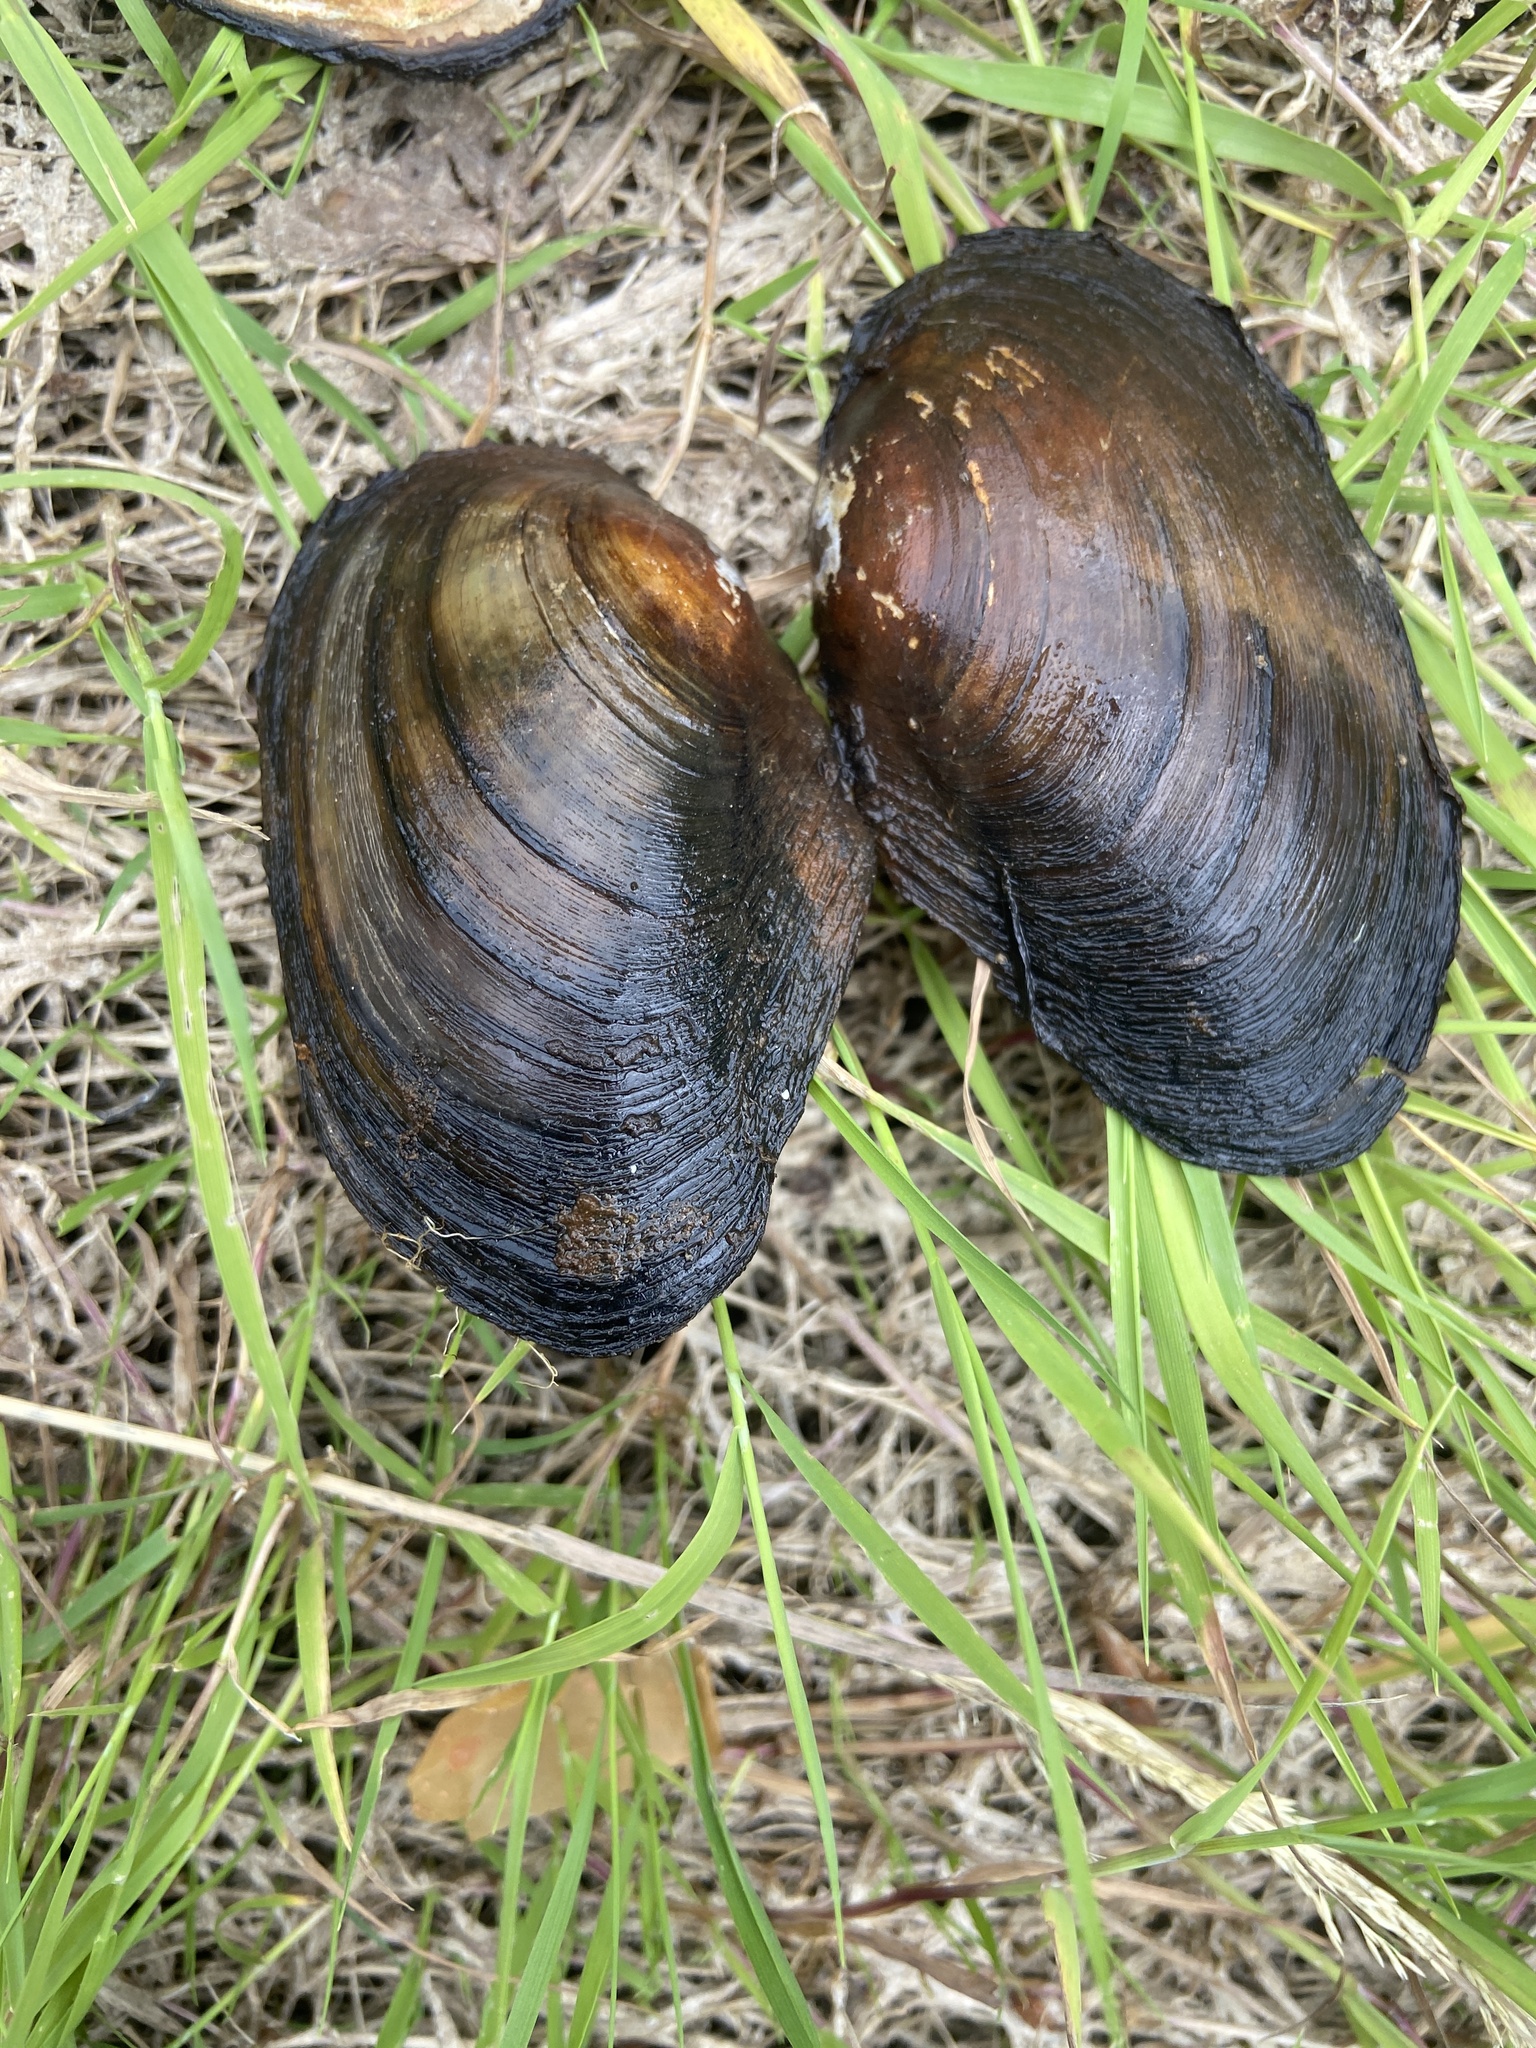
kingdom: Animalia
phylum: Mollusca
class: Bivalvia
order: Unionida
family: Unionidae
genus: Anodonta
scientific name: Anodonta anatina
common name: Duck mussel
